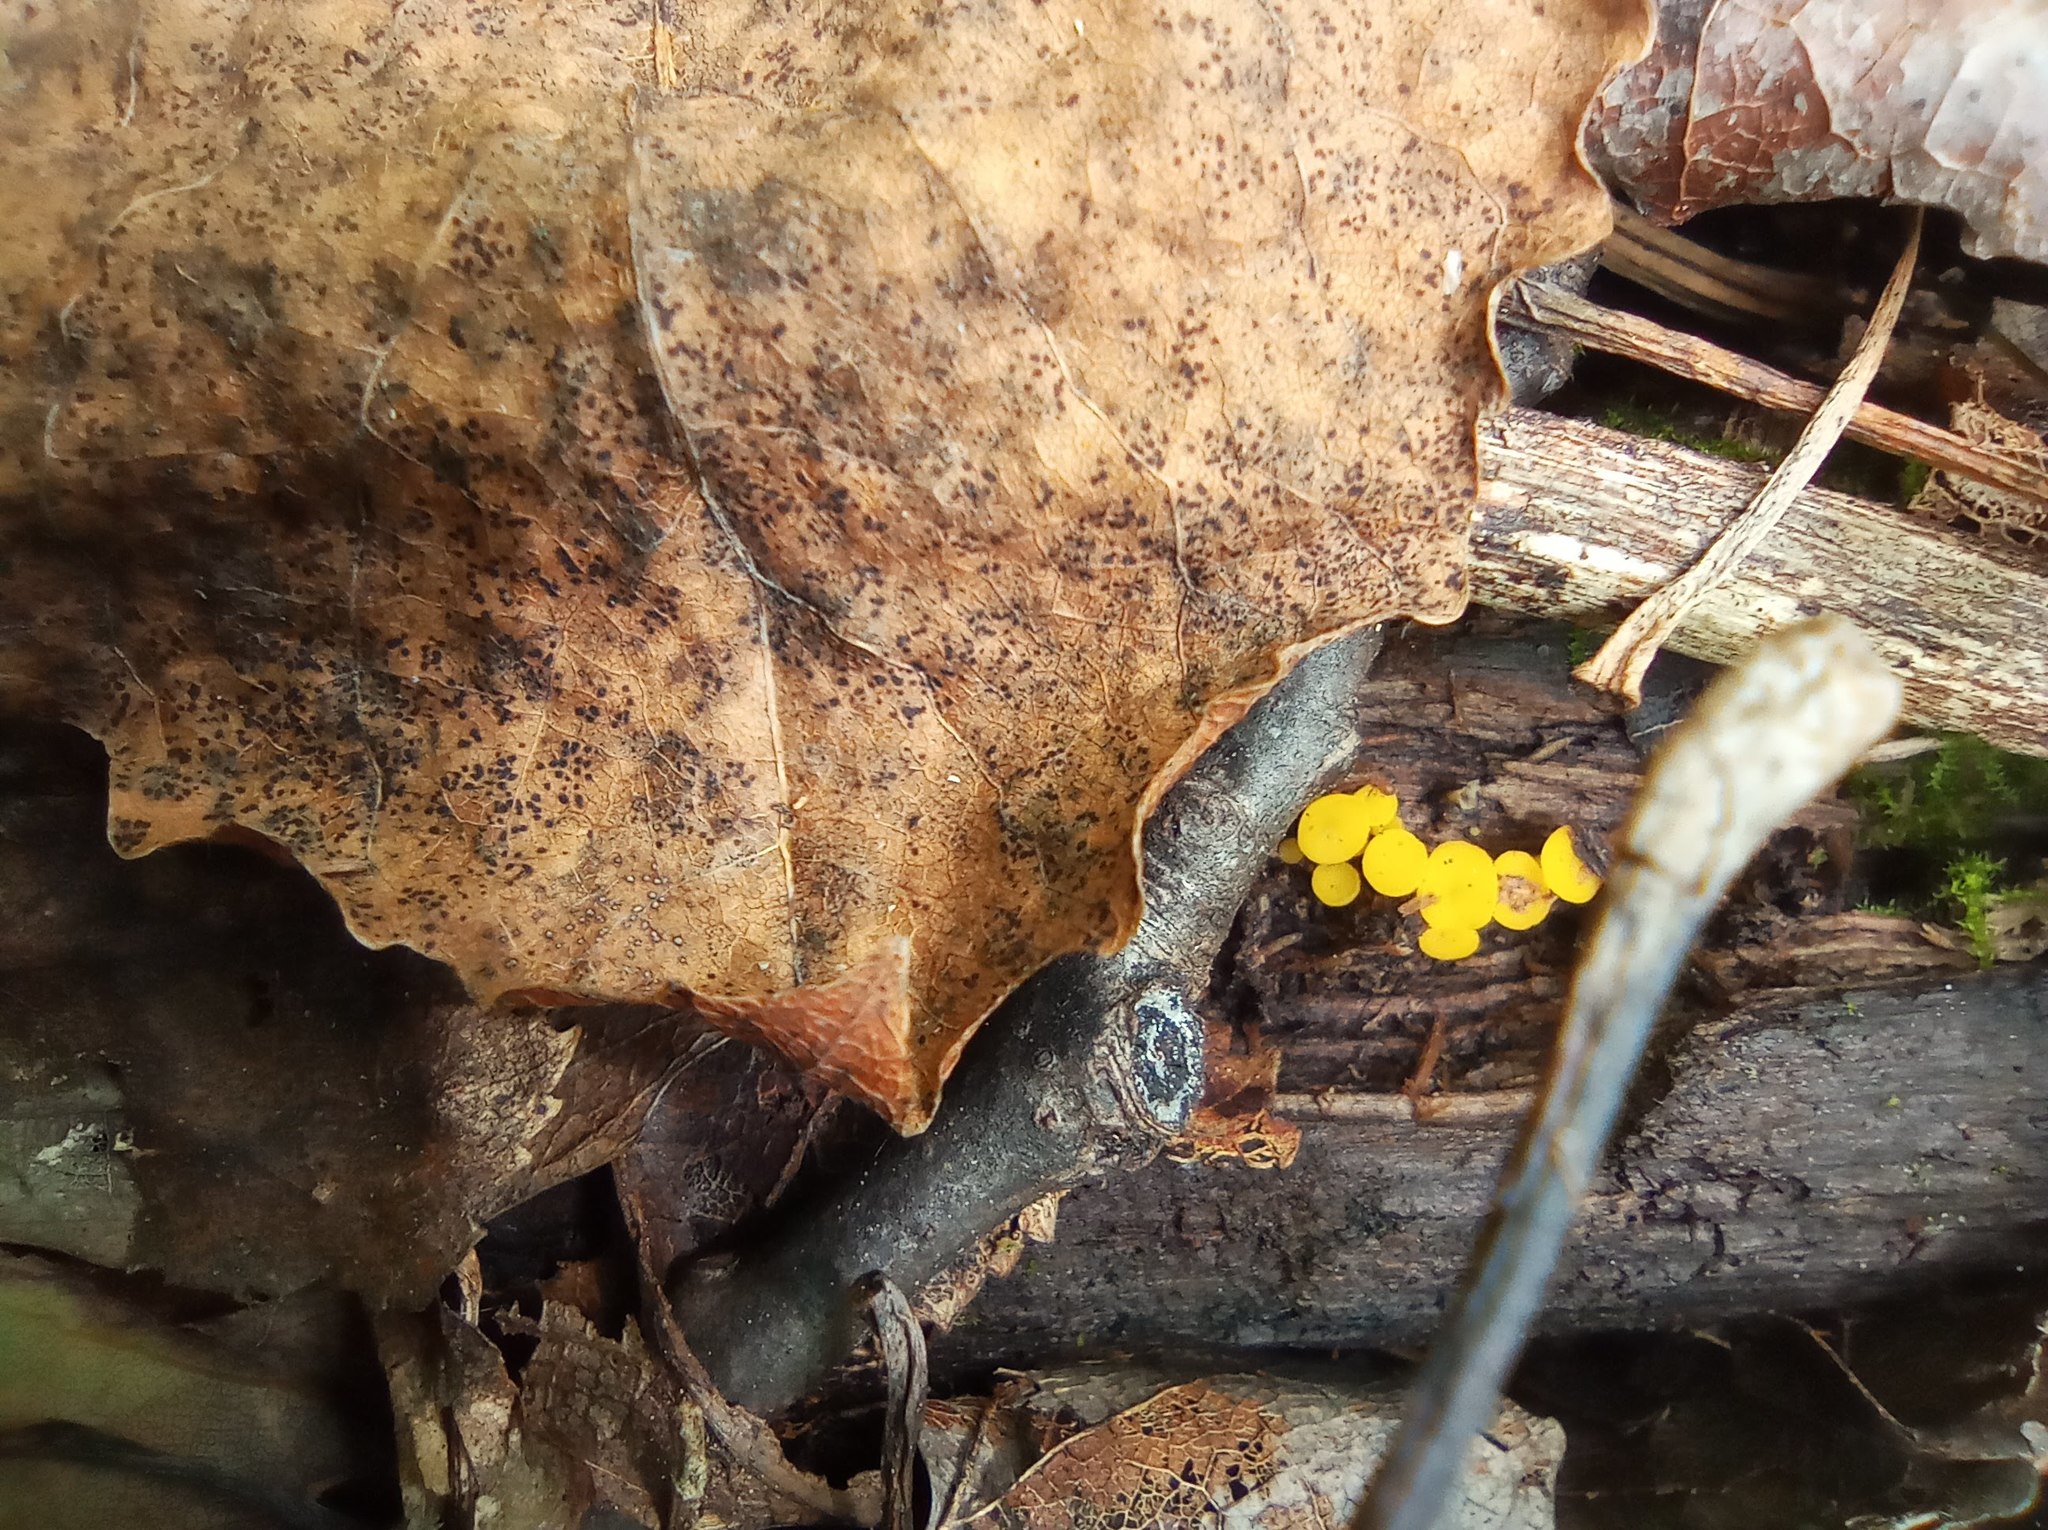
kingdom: Fungi
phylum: Ascomycota
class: Leotiomycetes
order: Helotiales
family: Pezizellaceae
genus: Calycina
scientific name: Calycina citrina
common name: Yellow fairy cups
